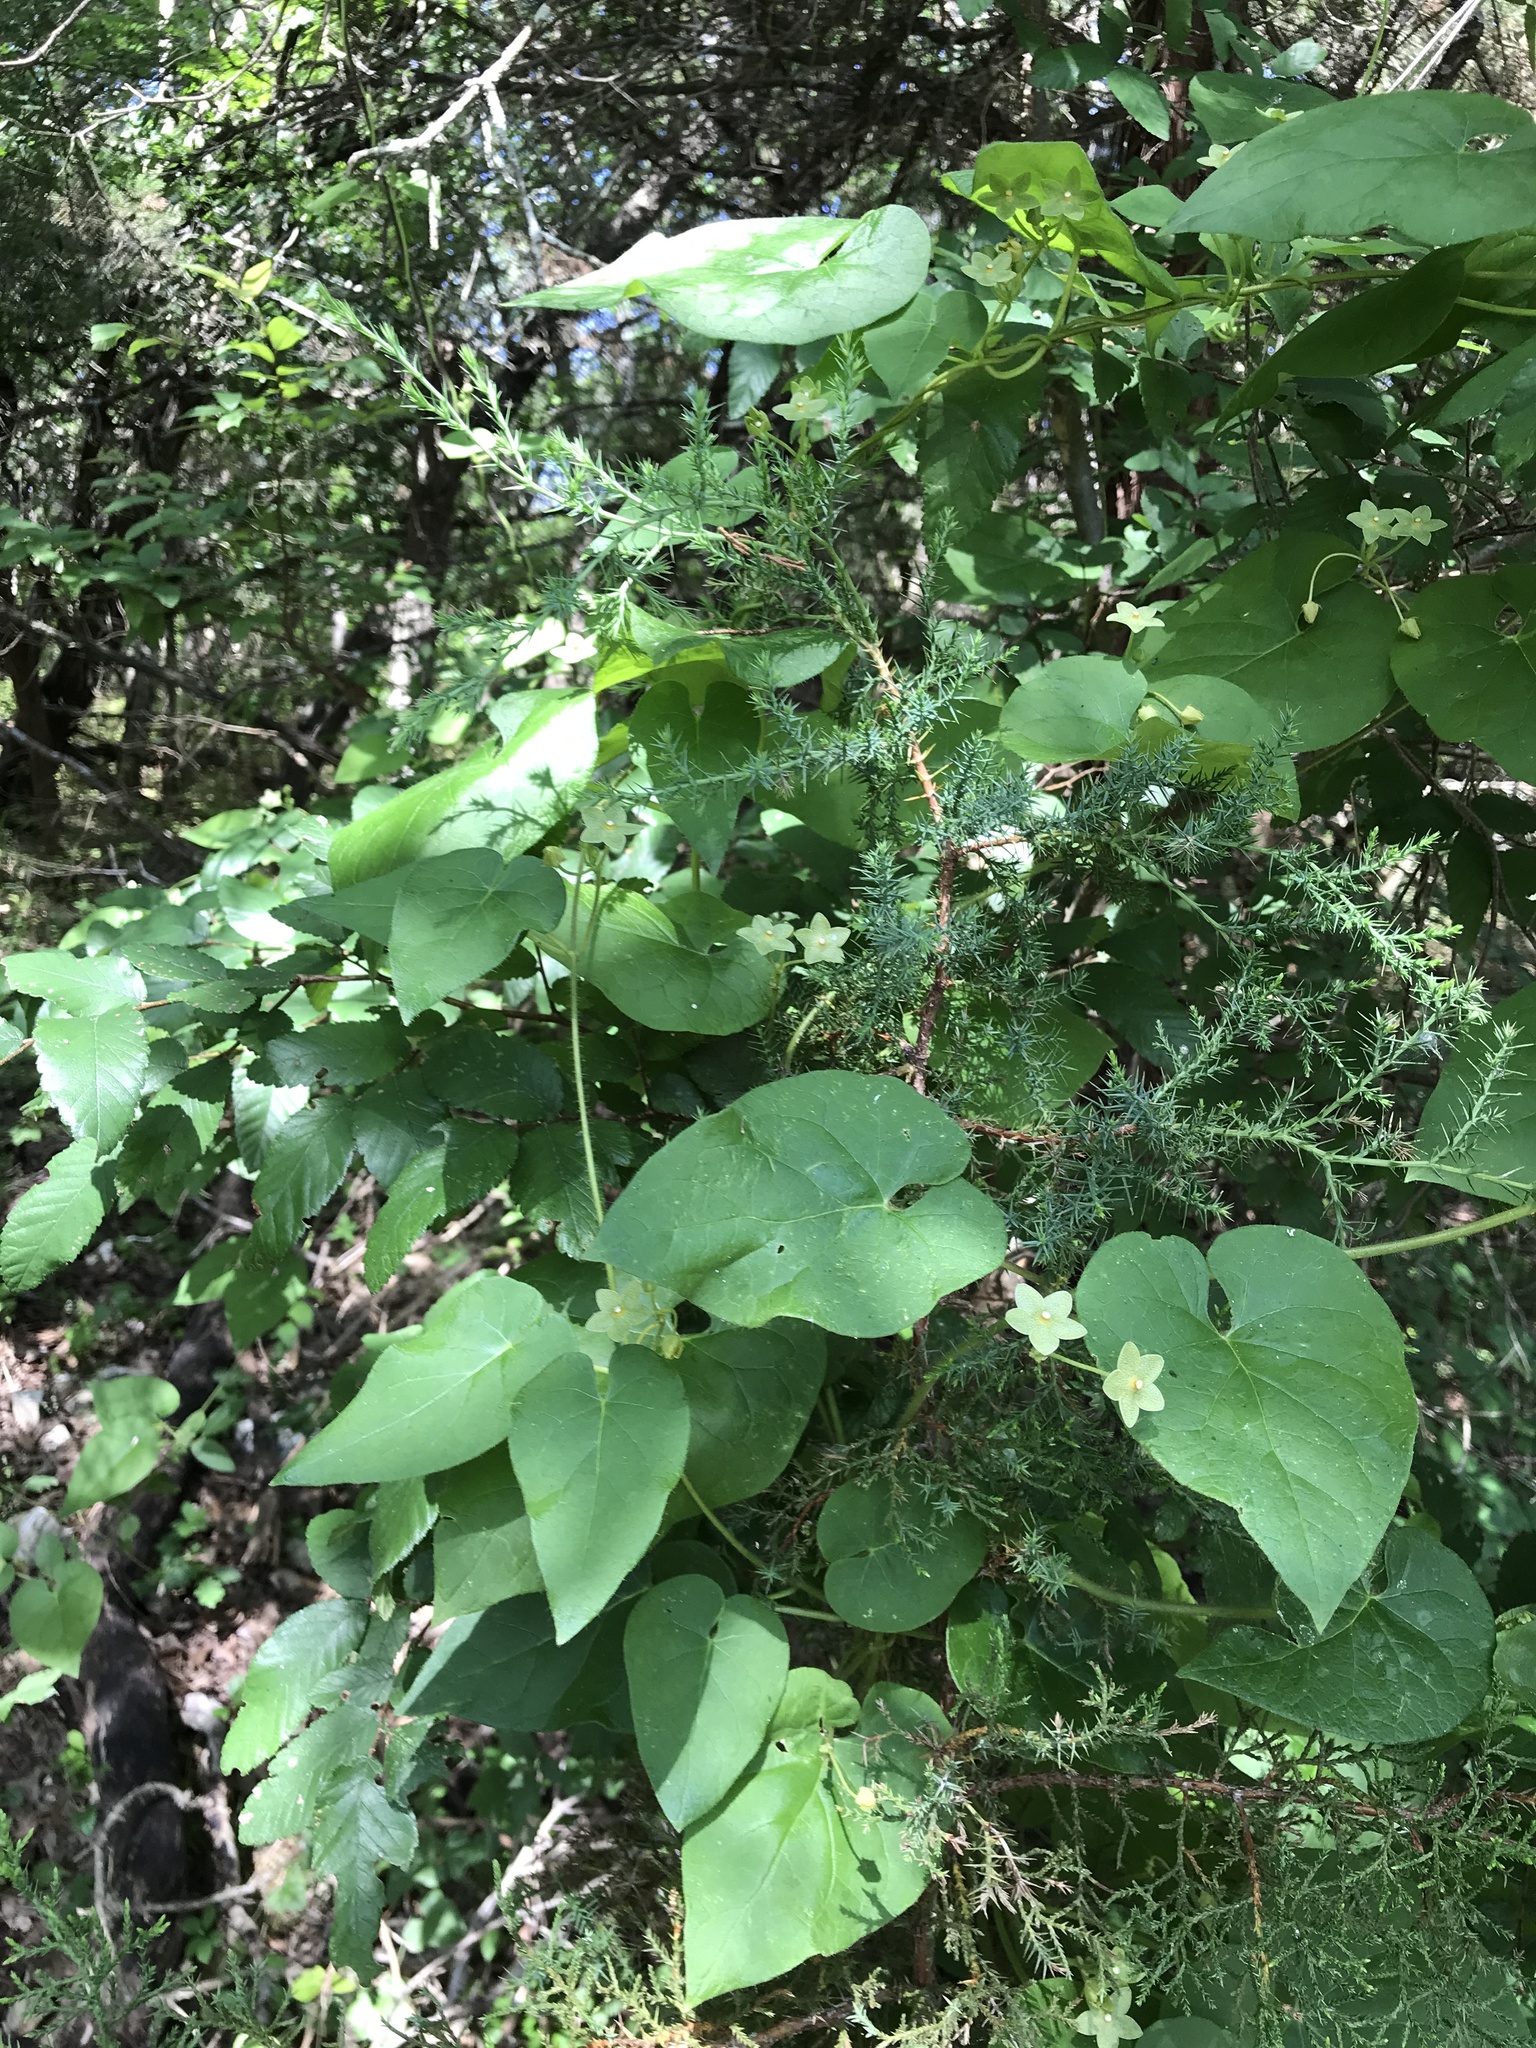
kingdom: Plantae
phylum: Tracheophyta
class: Magnoliopsida
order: Gentianales
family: Apocynaceae
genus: Dictyanthus
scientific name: Dictyanthus reticulatus
